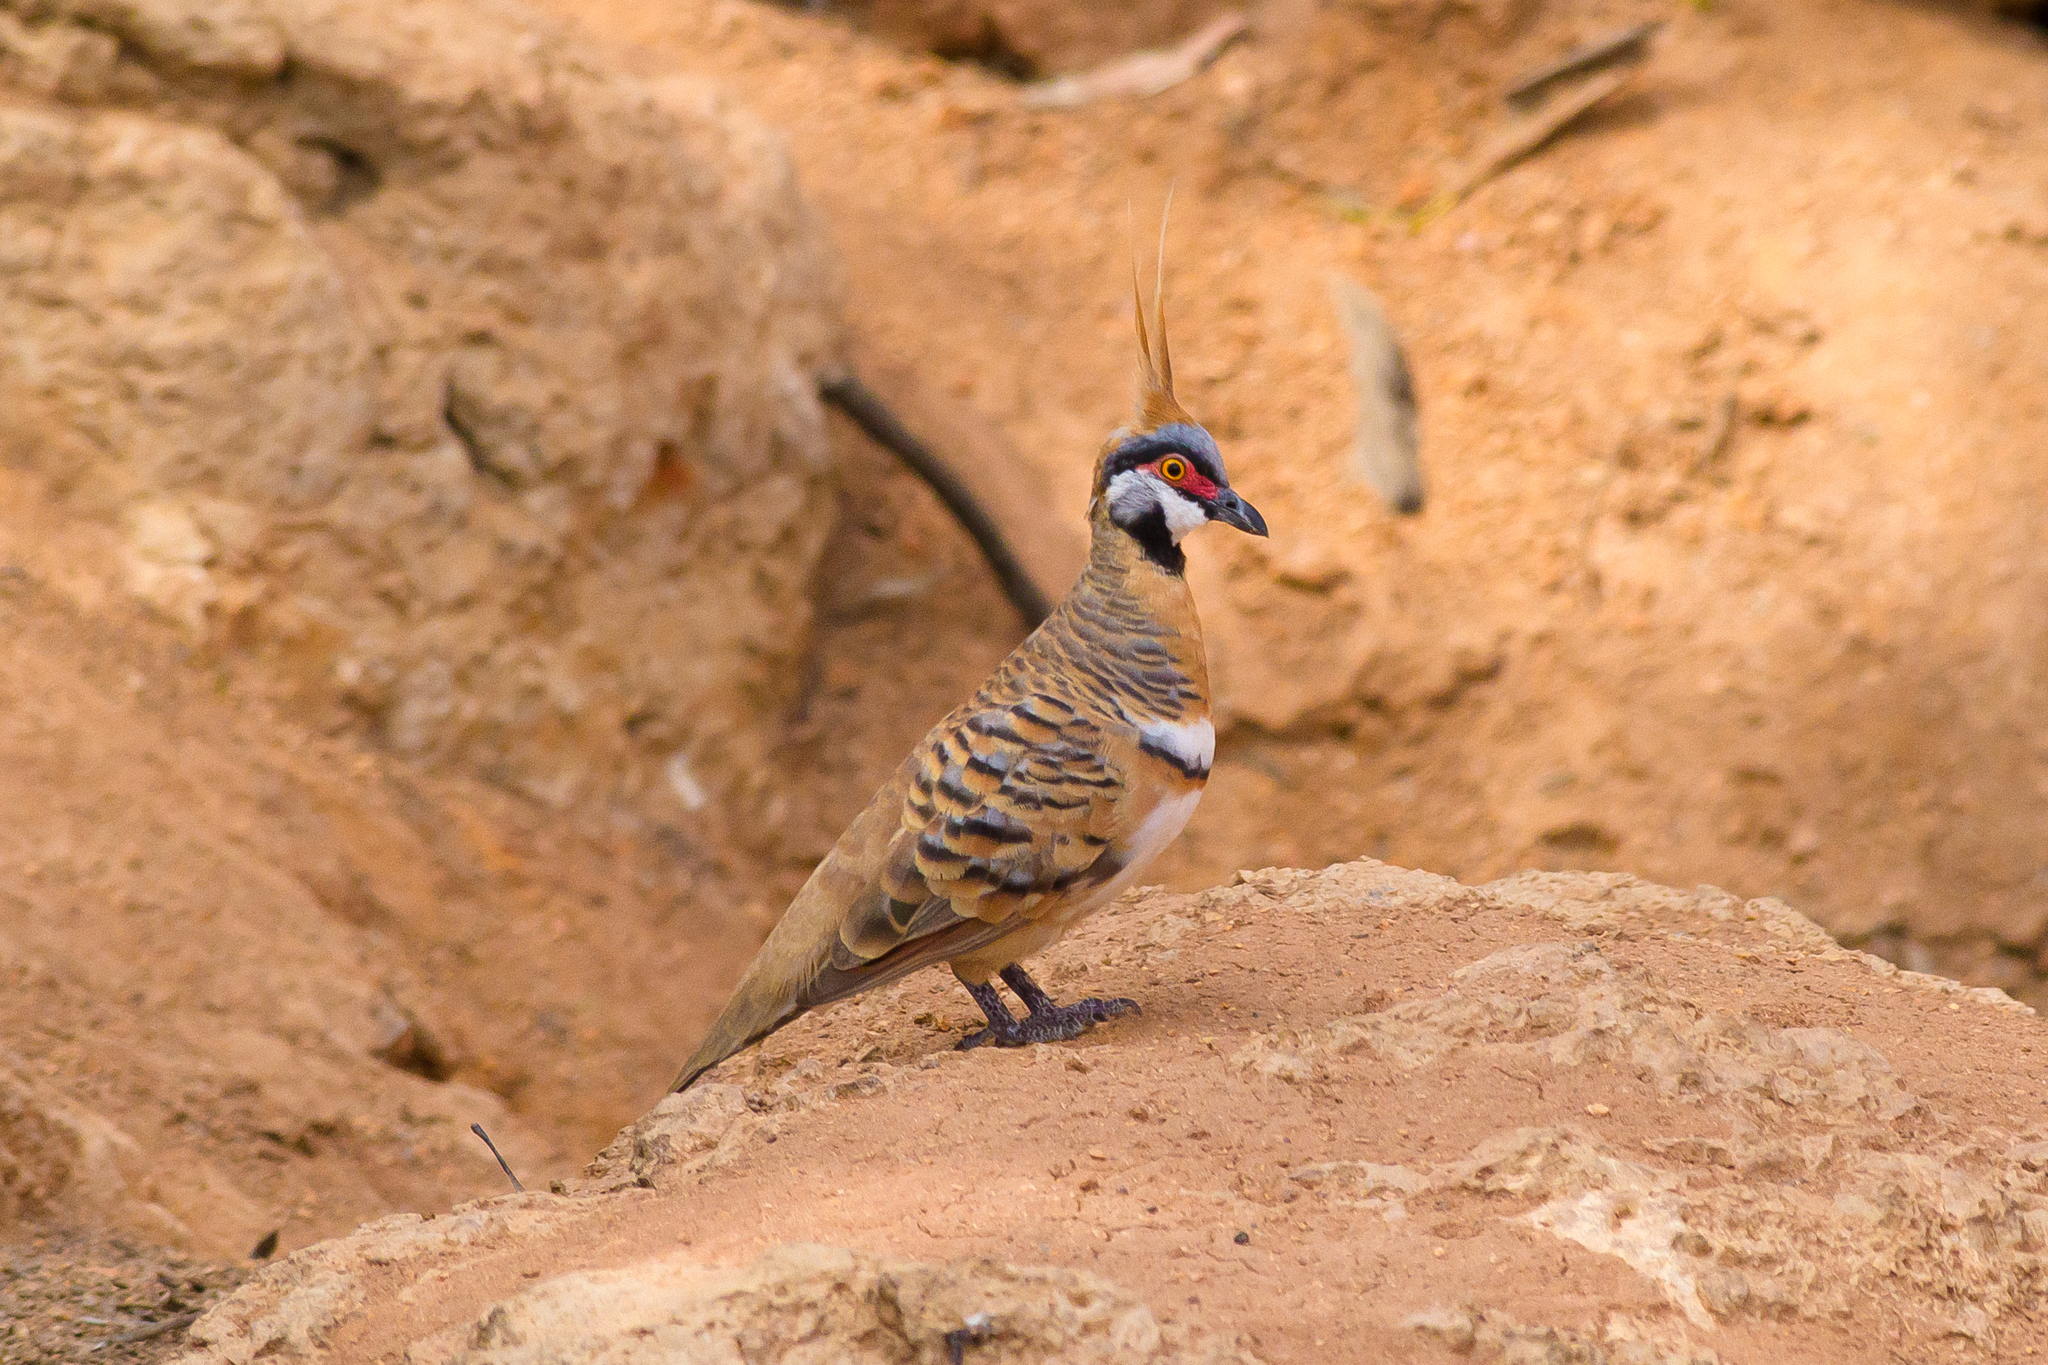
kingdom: Animalia
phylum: Chordata
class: Aves
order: Columbiformes
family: Columbidae
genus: Geophaps
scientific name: Geophaps plumifera
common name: Spinifex pigeon
